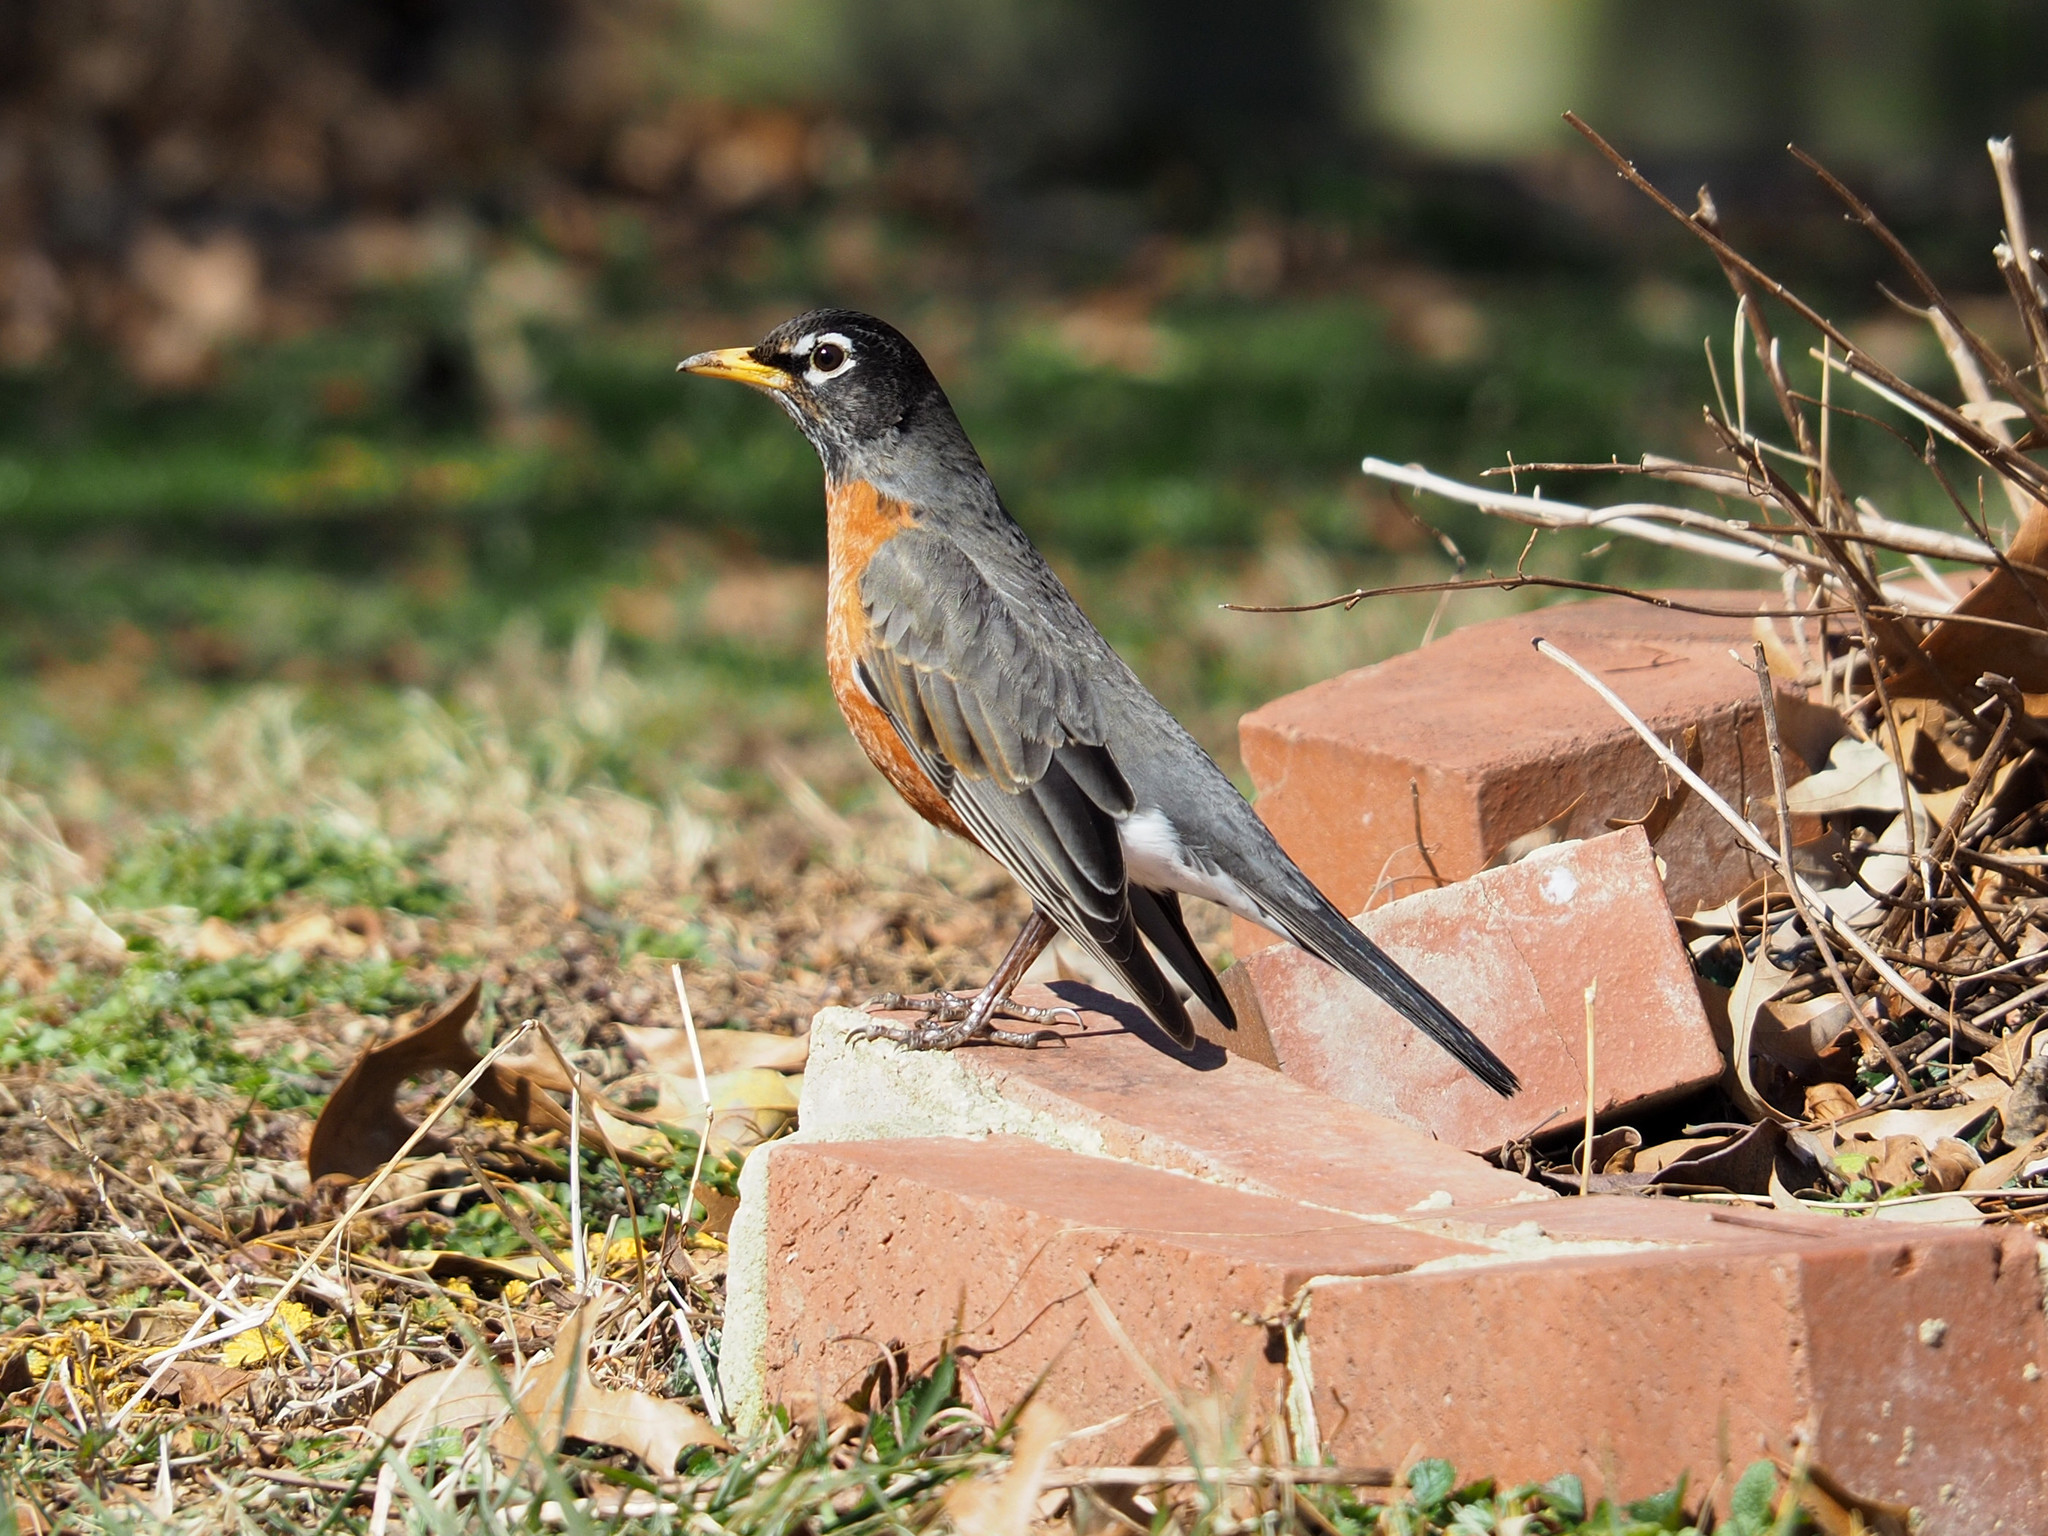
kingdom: Animalia
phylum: Chordata
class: Aves
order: Passeriformes
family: Turdidae
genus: Turdus
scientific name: Turdus migratorius
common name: American robin
